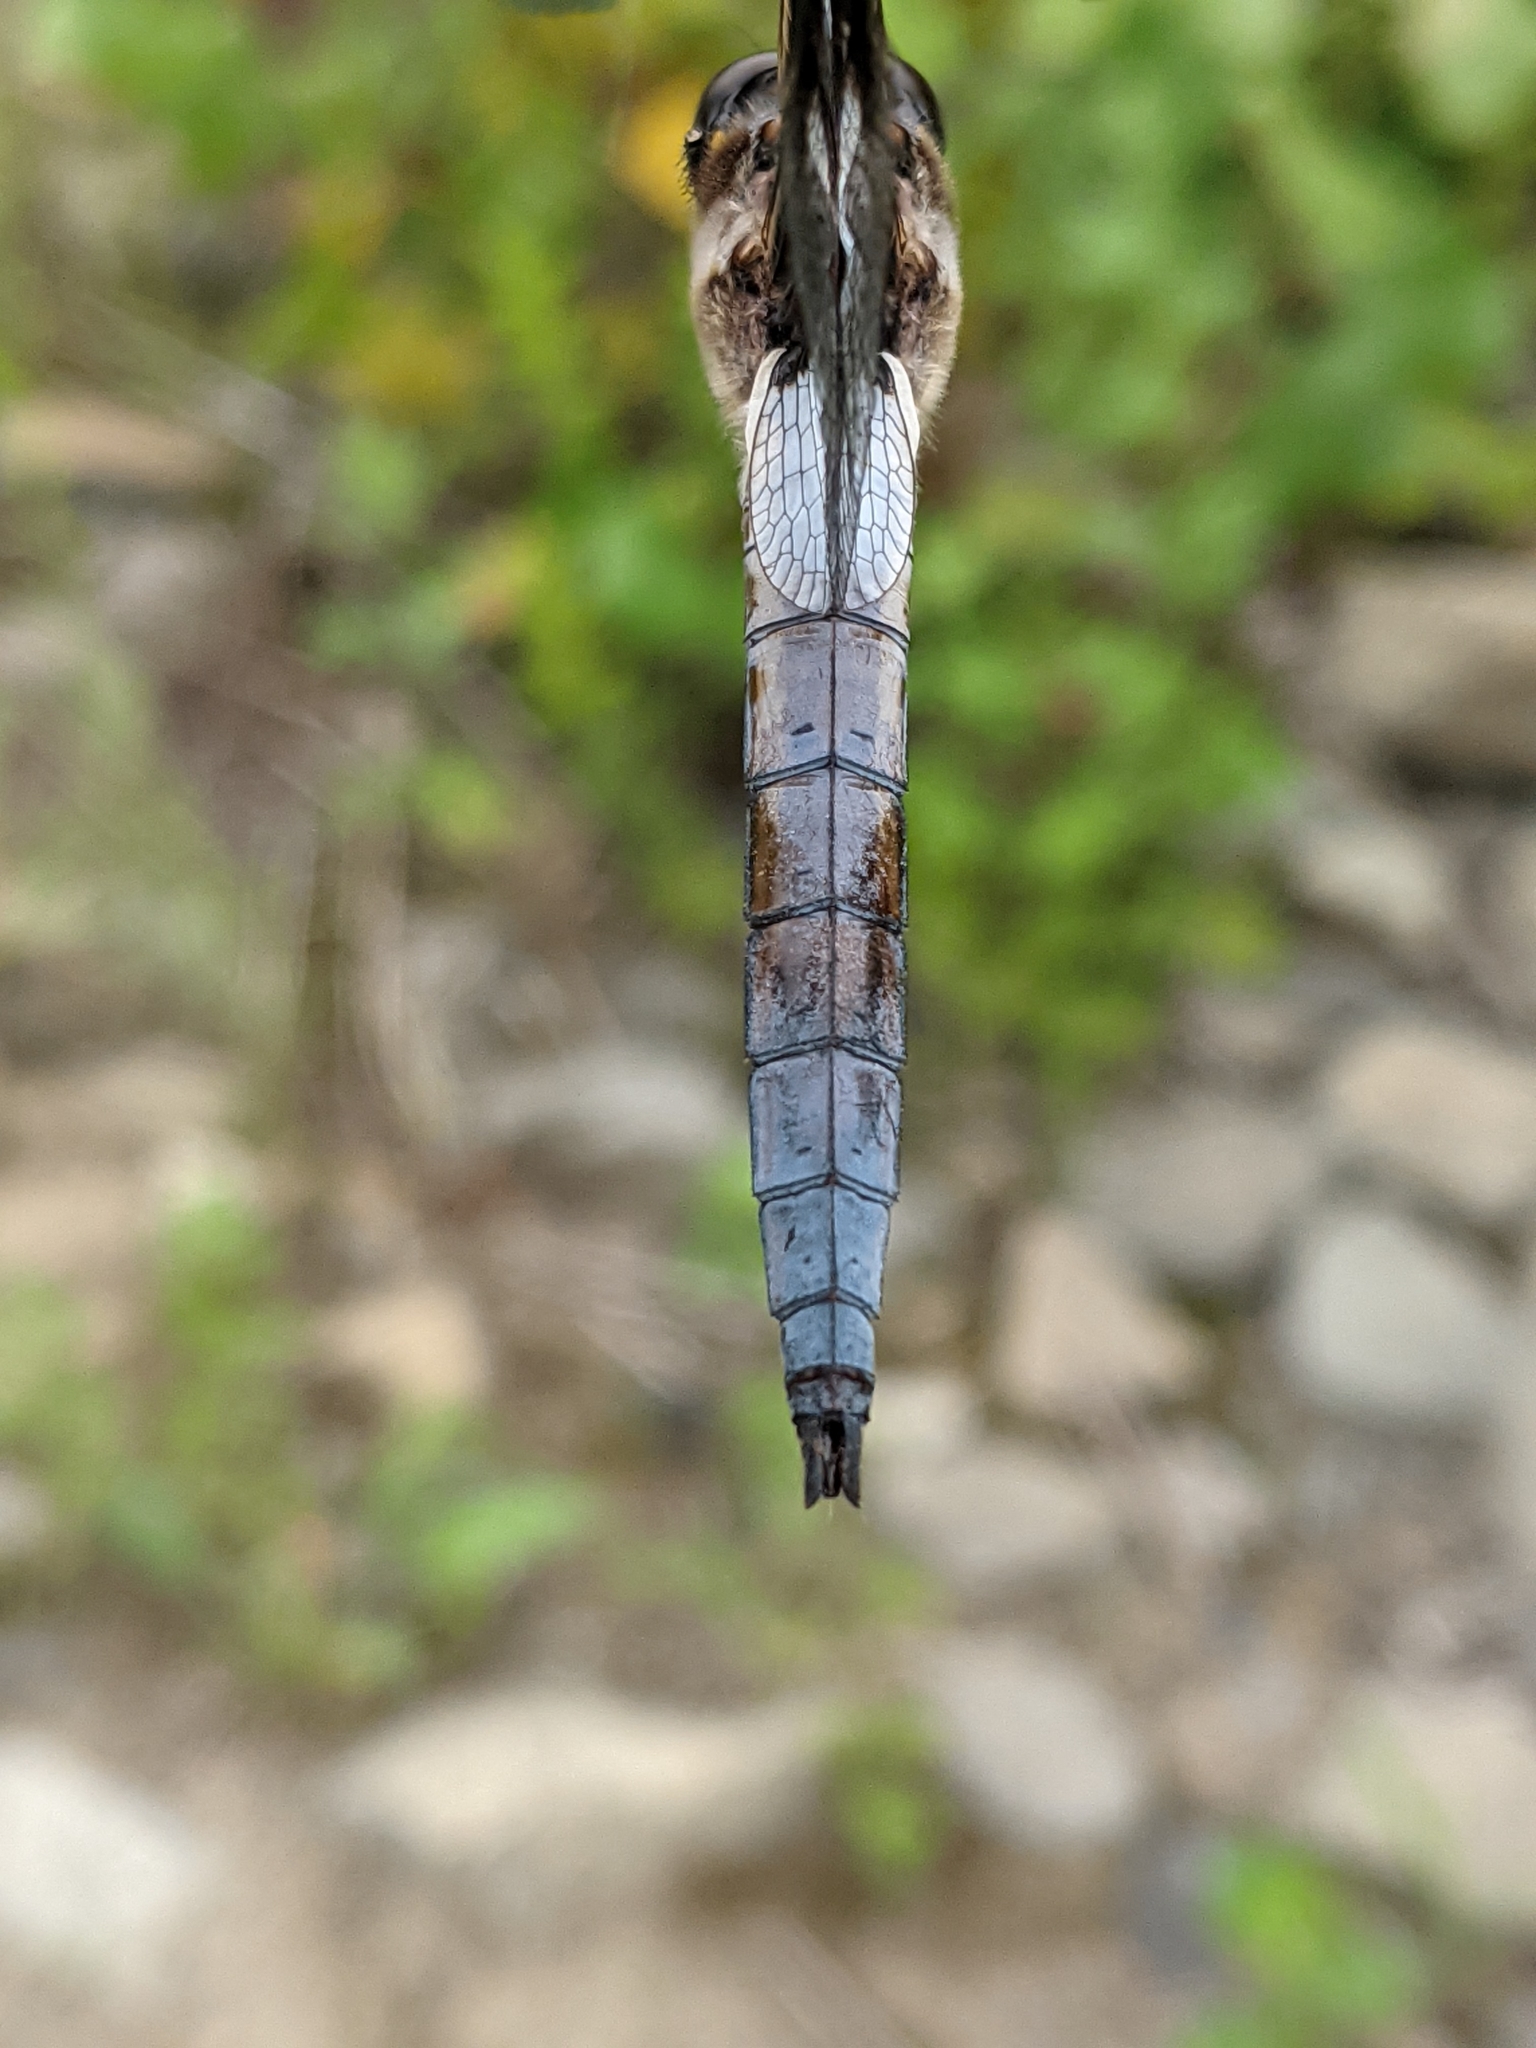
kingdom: Animalia
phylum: Arthropoda
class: Insecta
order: Odonata
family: Libellulidae
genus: Libellula
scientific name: Libellula pulchella
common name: Twelve-spotted skimmer
